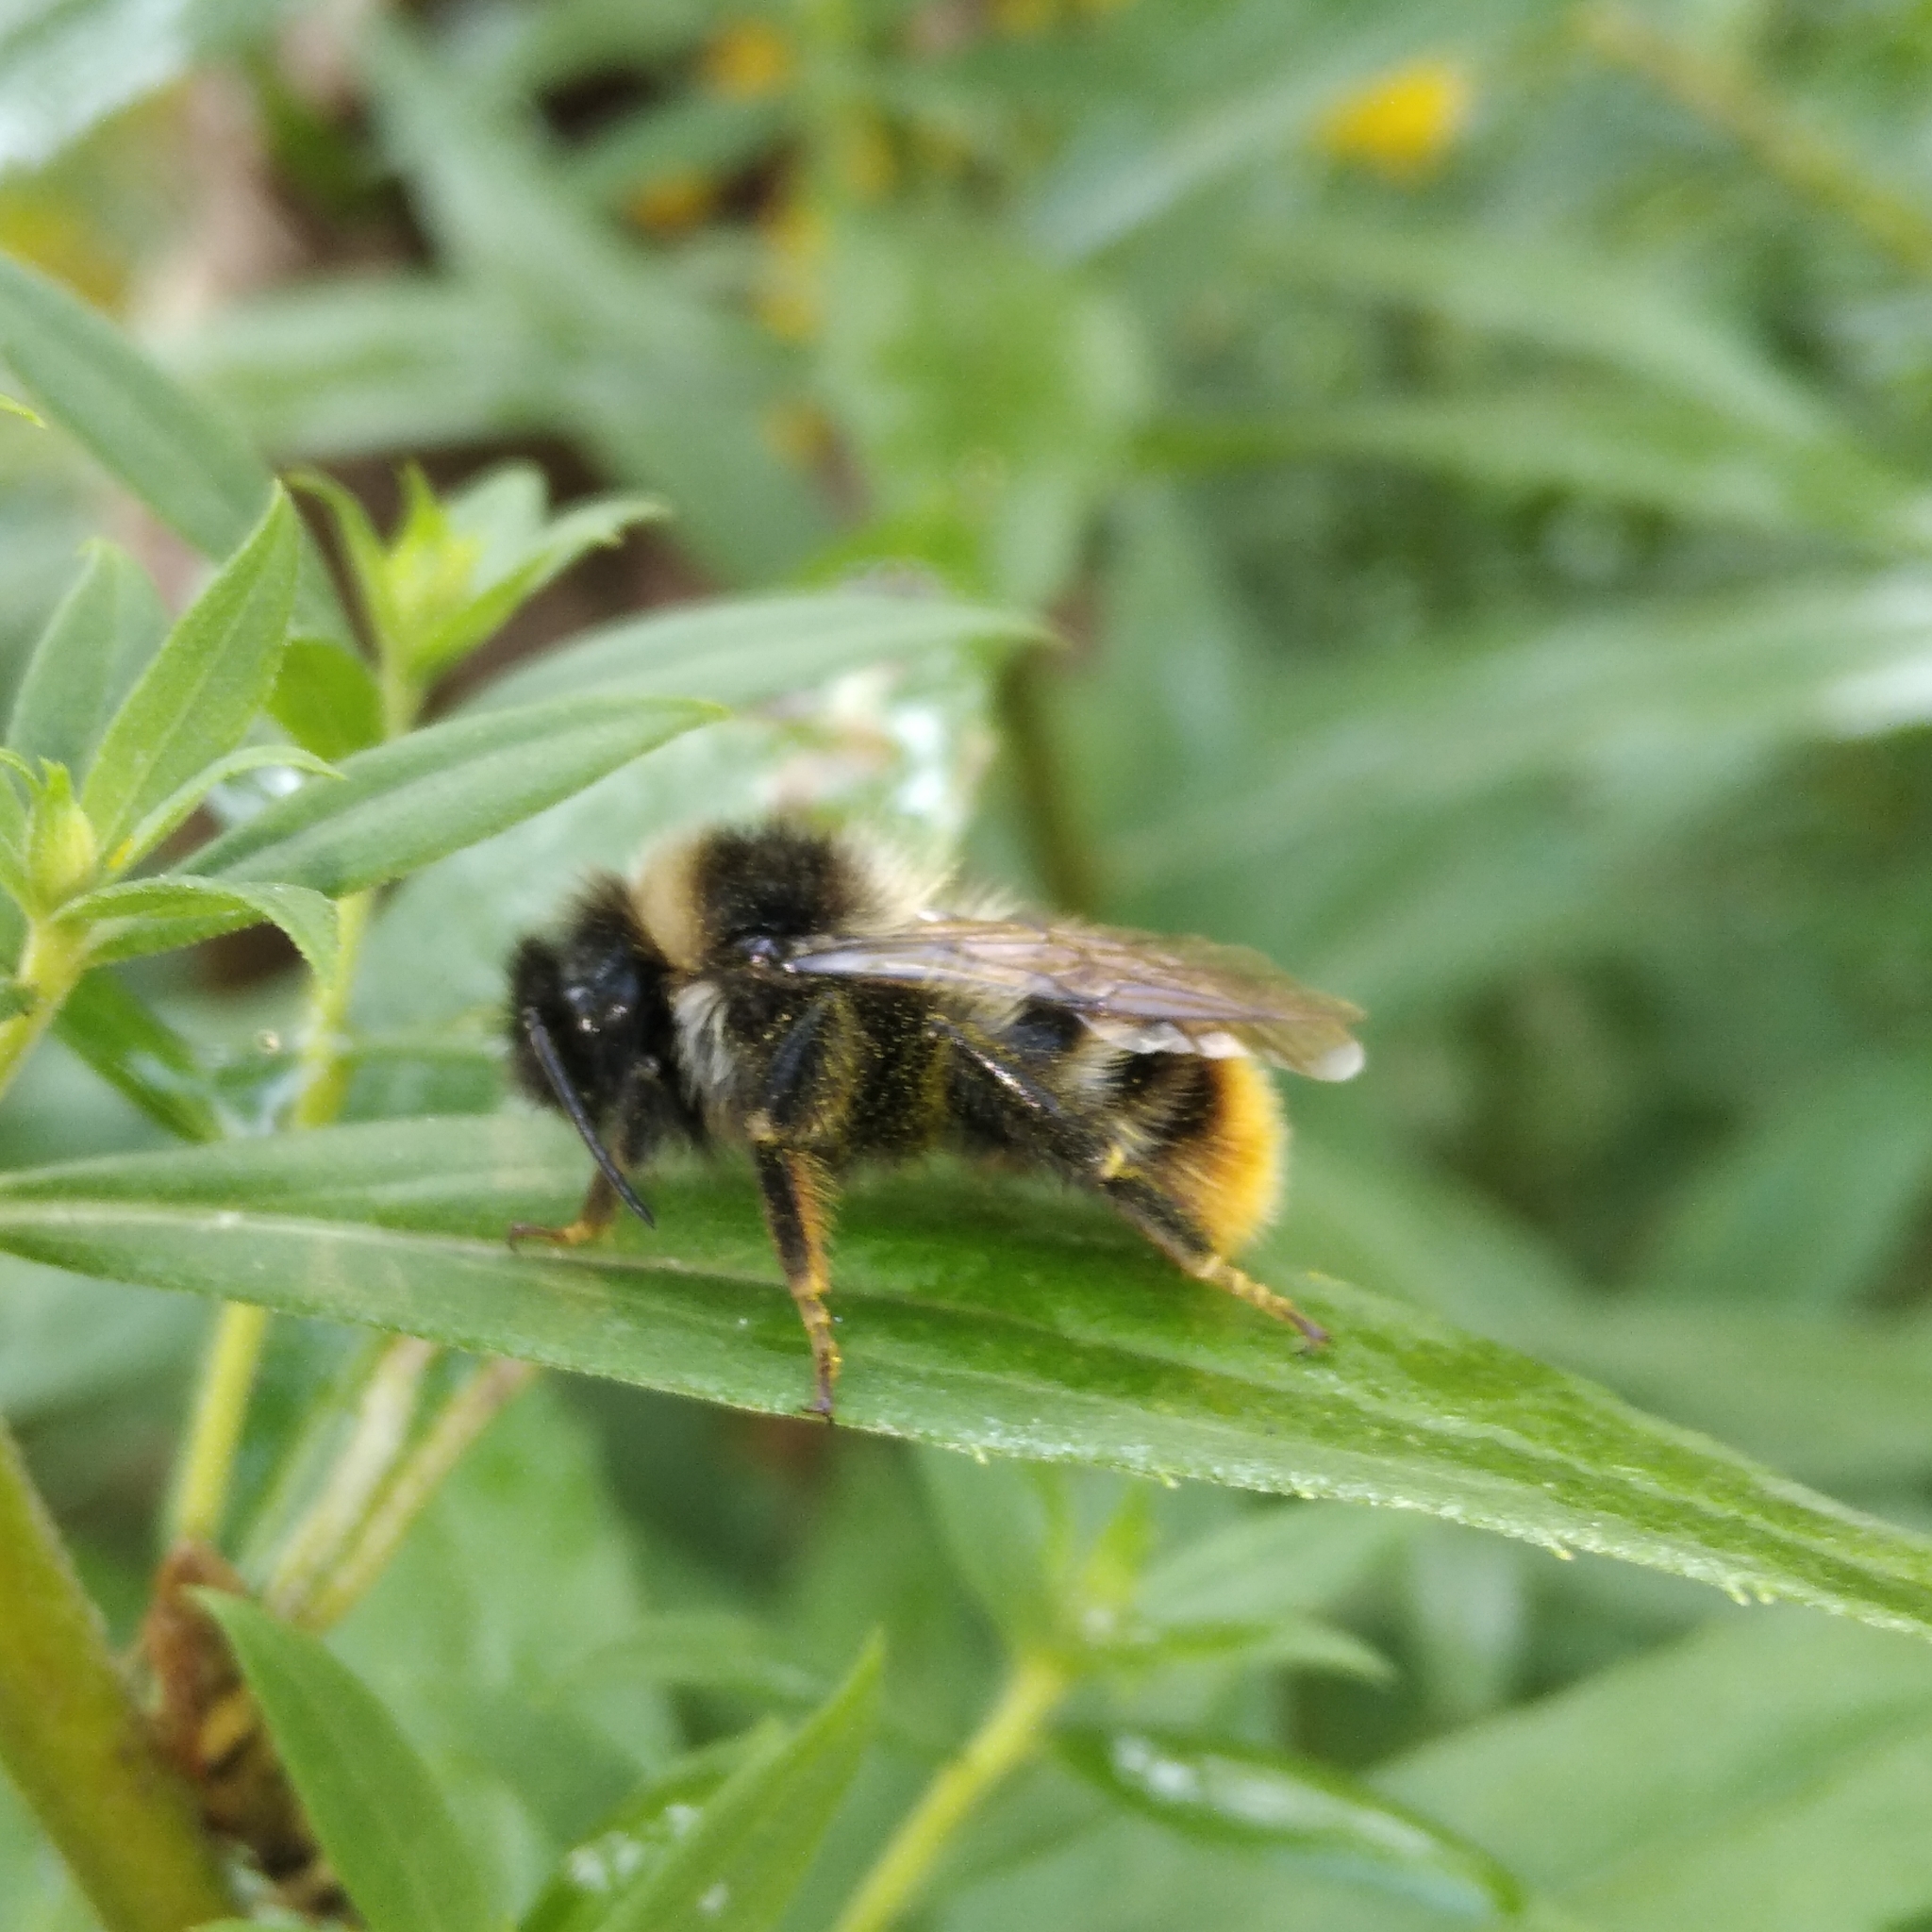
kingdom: Animalia
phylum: Arthropoda
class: Insecta
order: Hymenoptera
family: Apidae
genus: Bombus
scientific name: Bombus rupestris
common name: Hill cuckoo-bee
